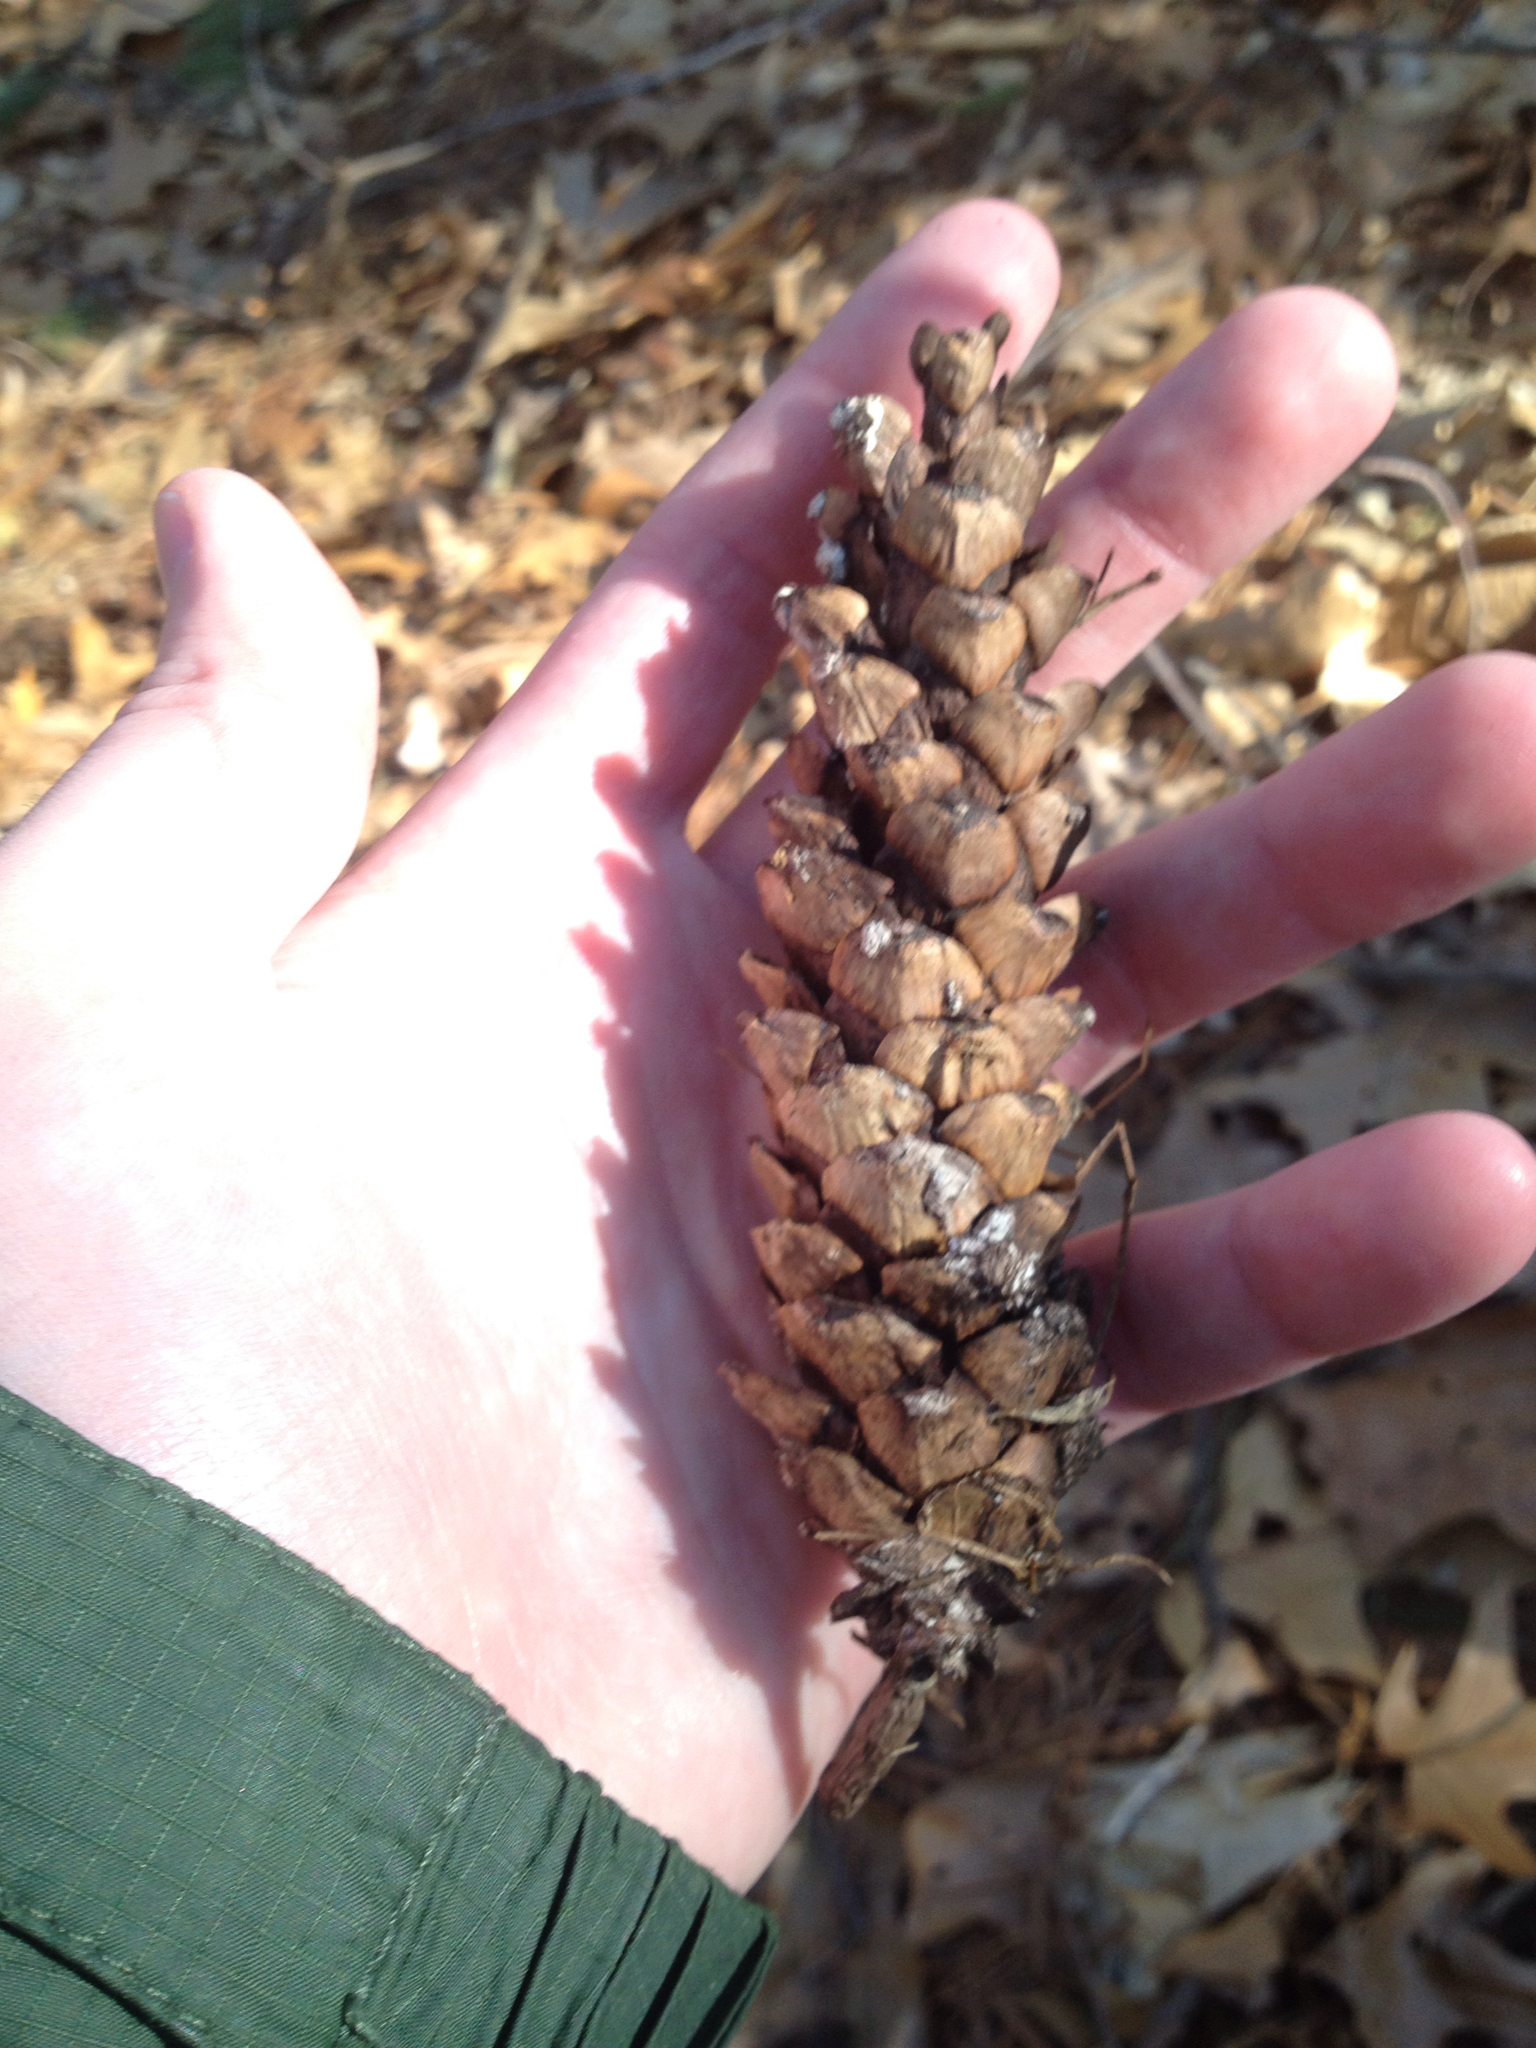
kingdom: Plantae
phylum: Tracheophyta
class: Pinopsida
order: Pinales
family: Pinaceae
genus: Pinus
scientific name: Pinus strobus
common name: Weymouth pine
